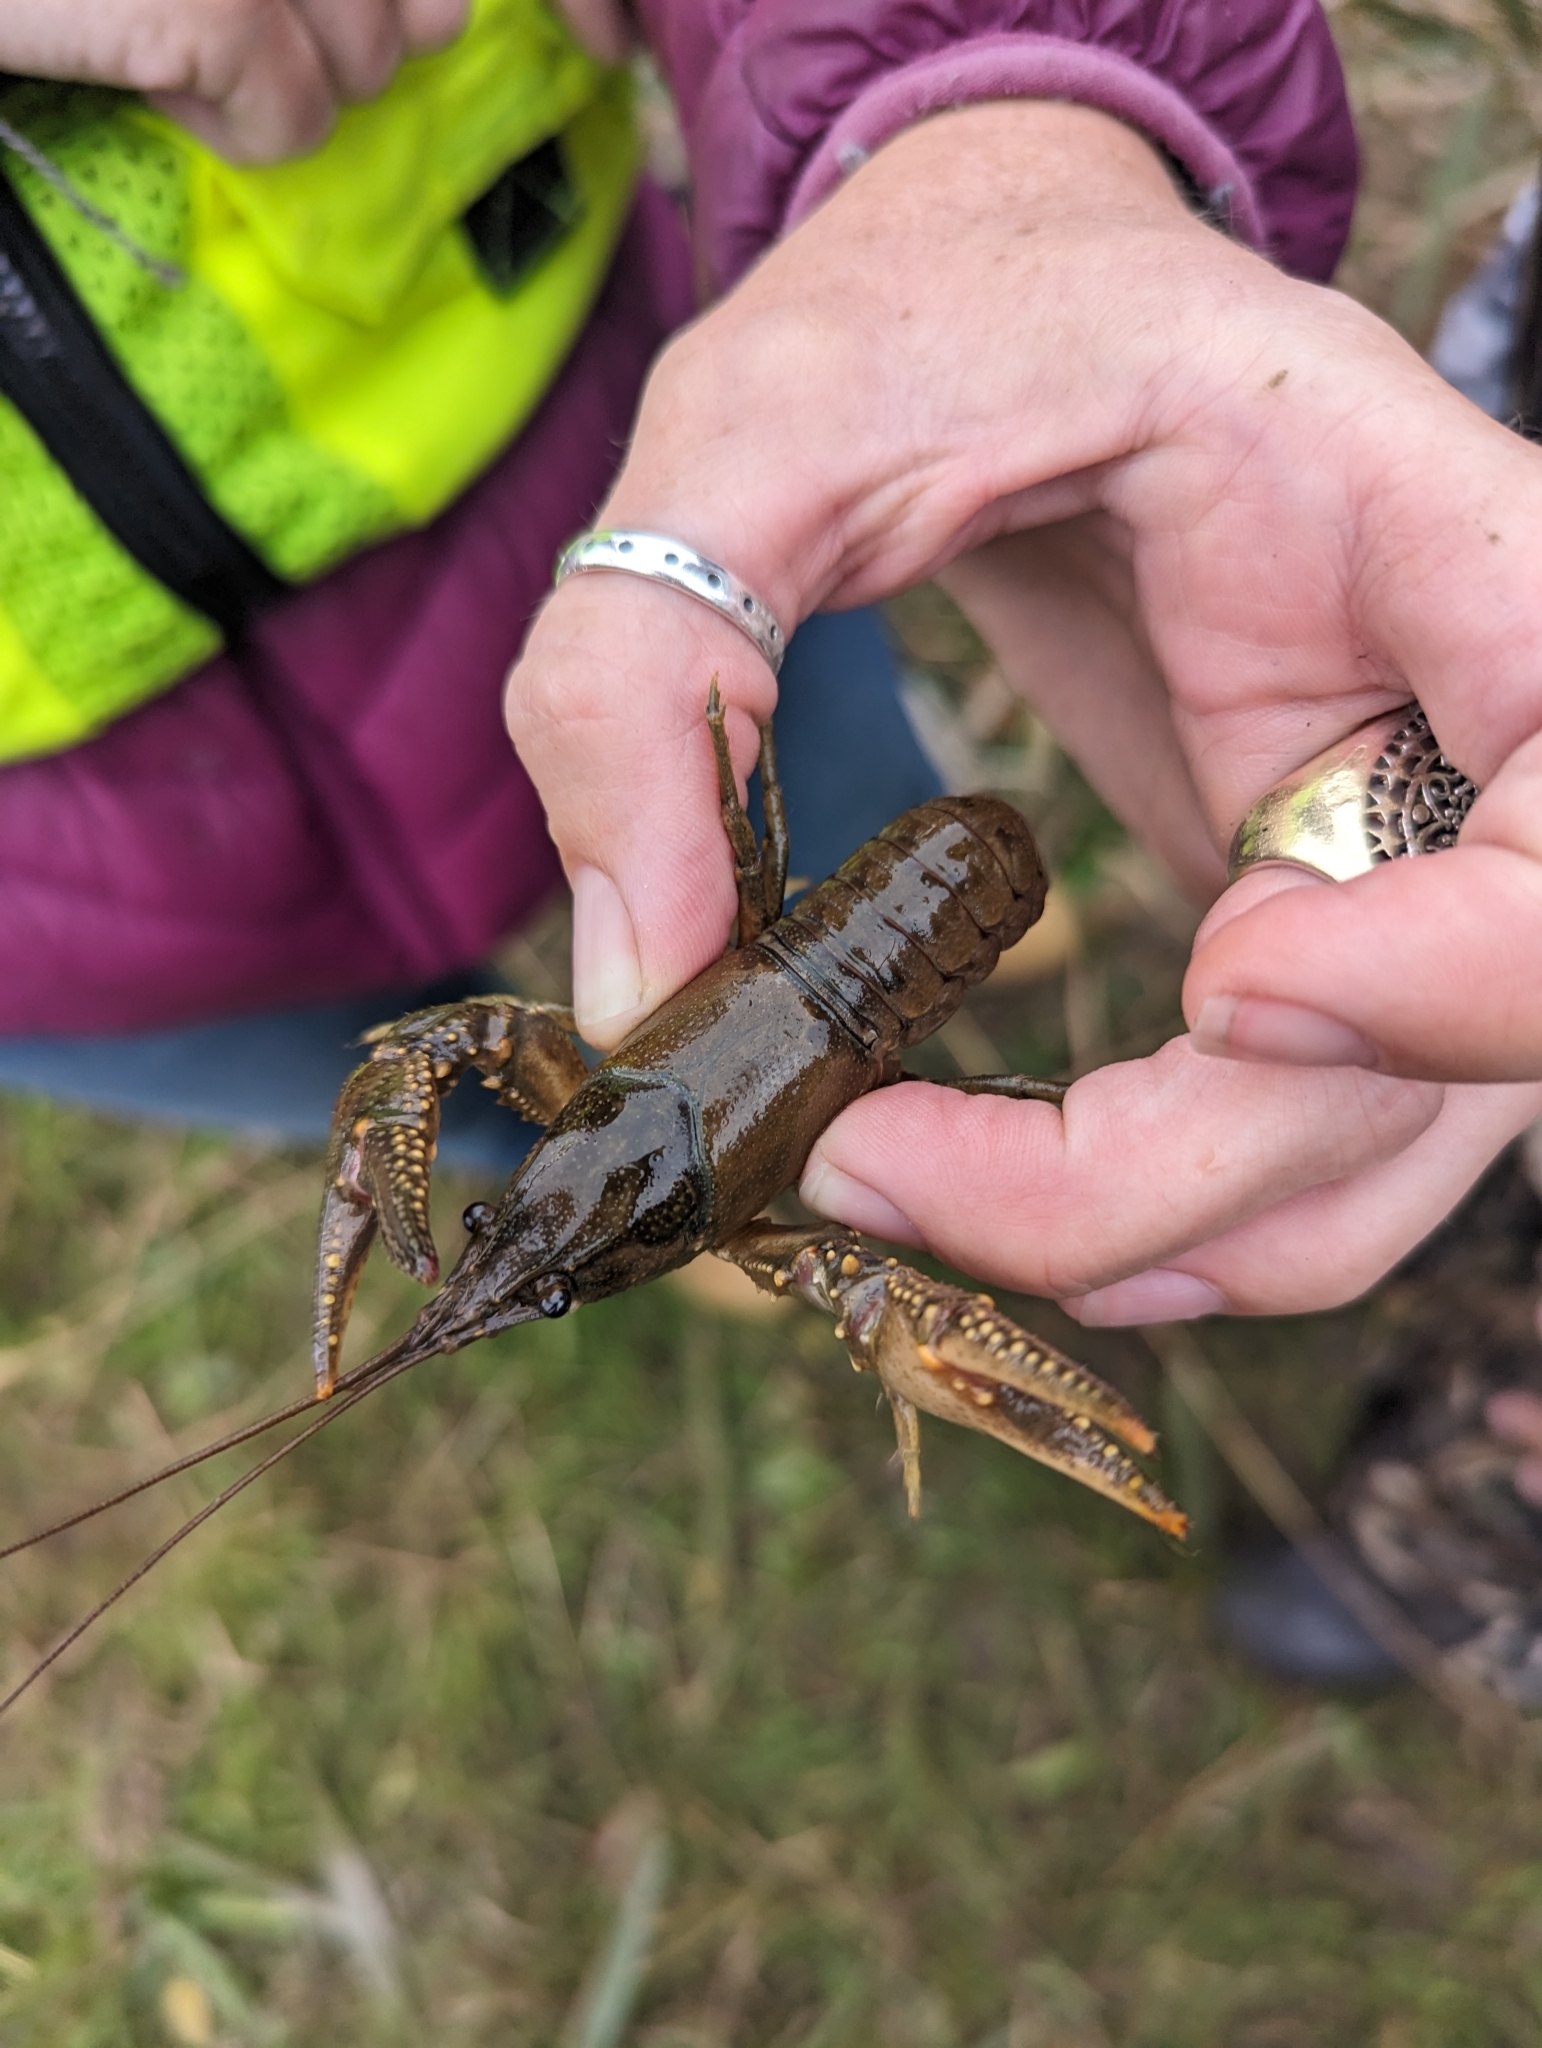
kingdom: Animalia
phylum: Arthropoda
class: Malacostraca
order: Decapoda
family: Cambaridae
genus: Faxonius
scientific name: Faxonius virilis
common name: Virile crayfish
